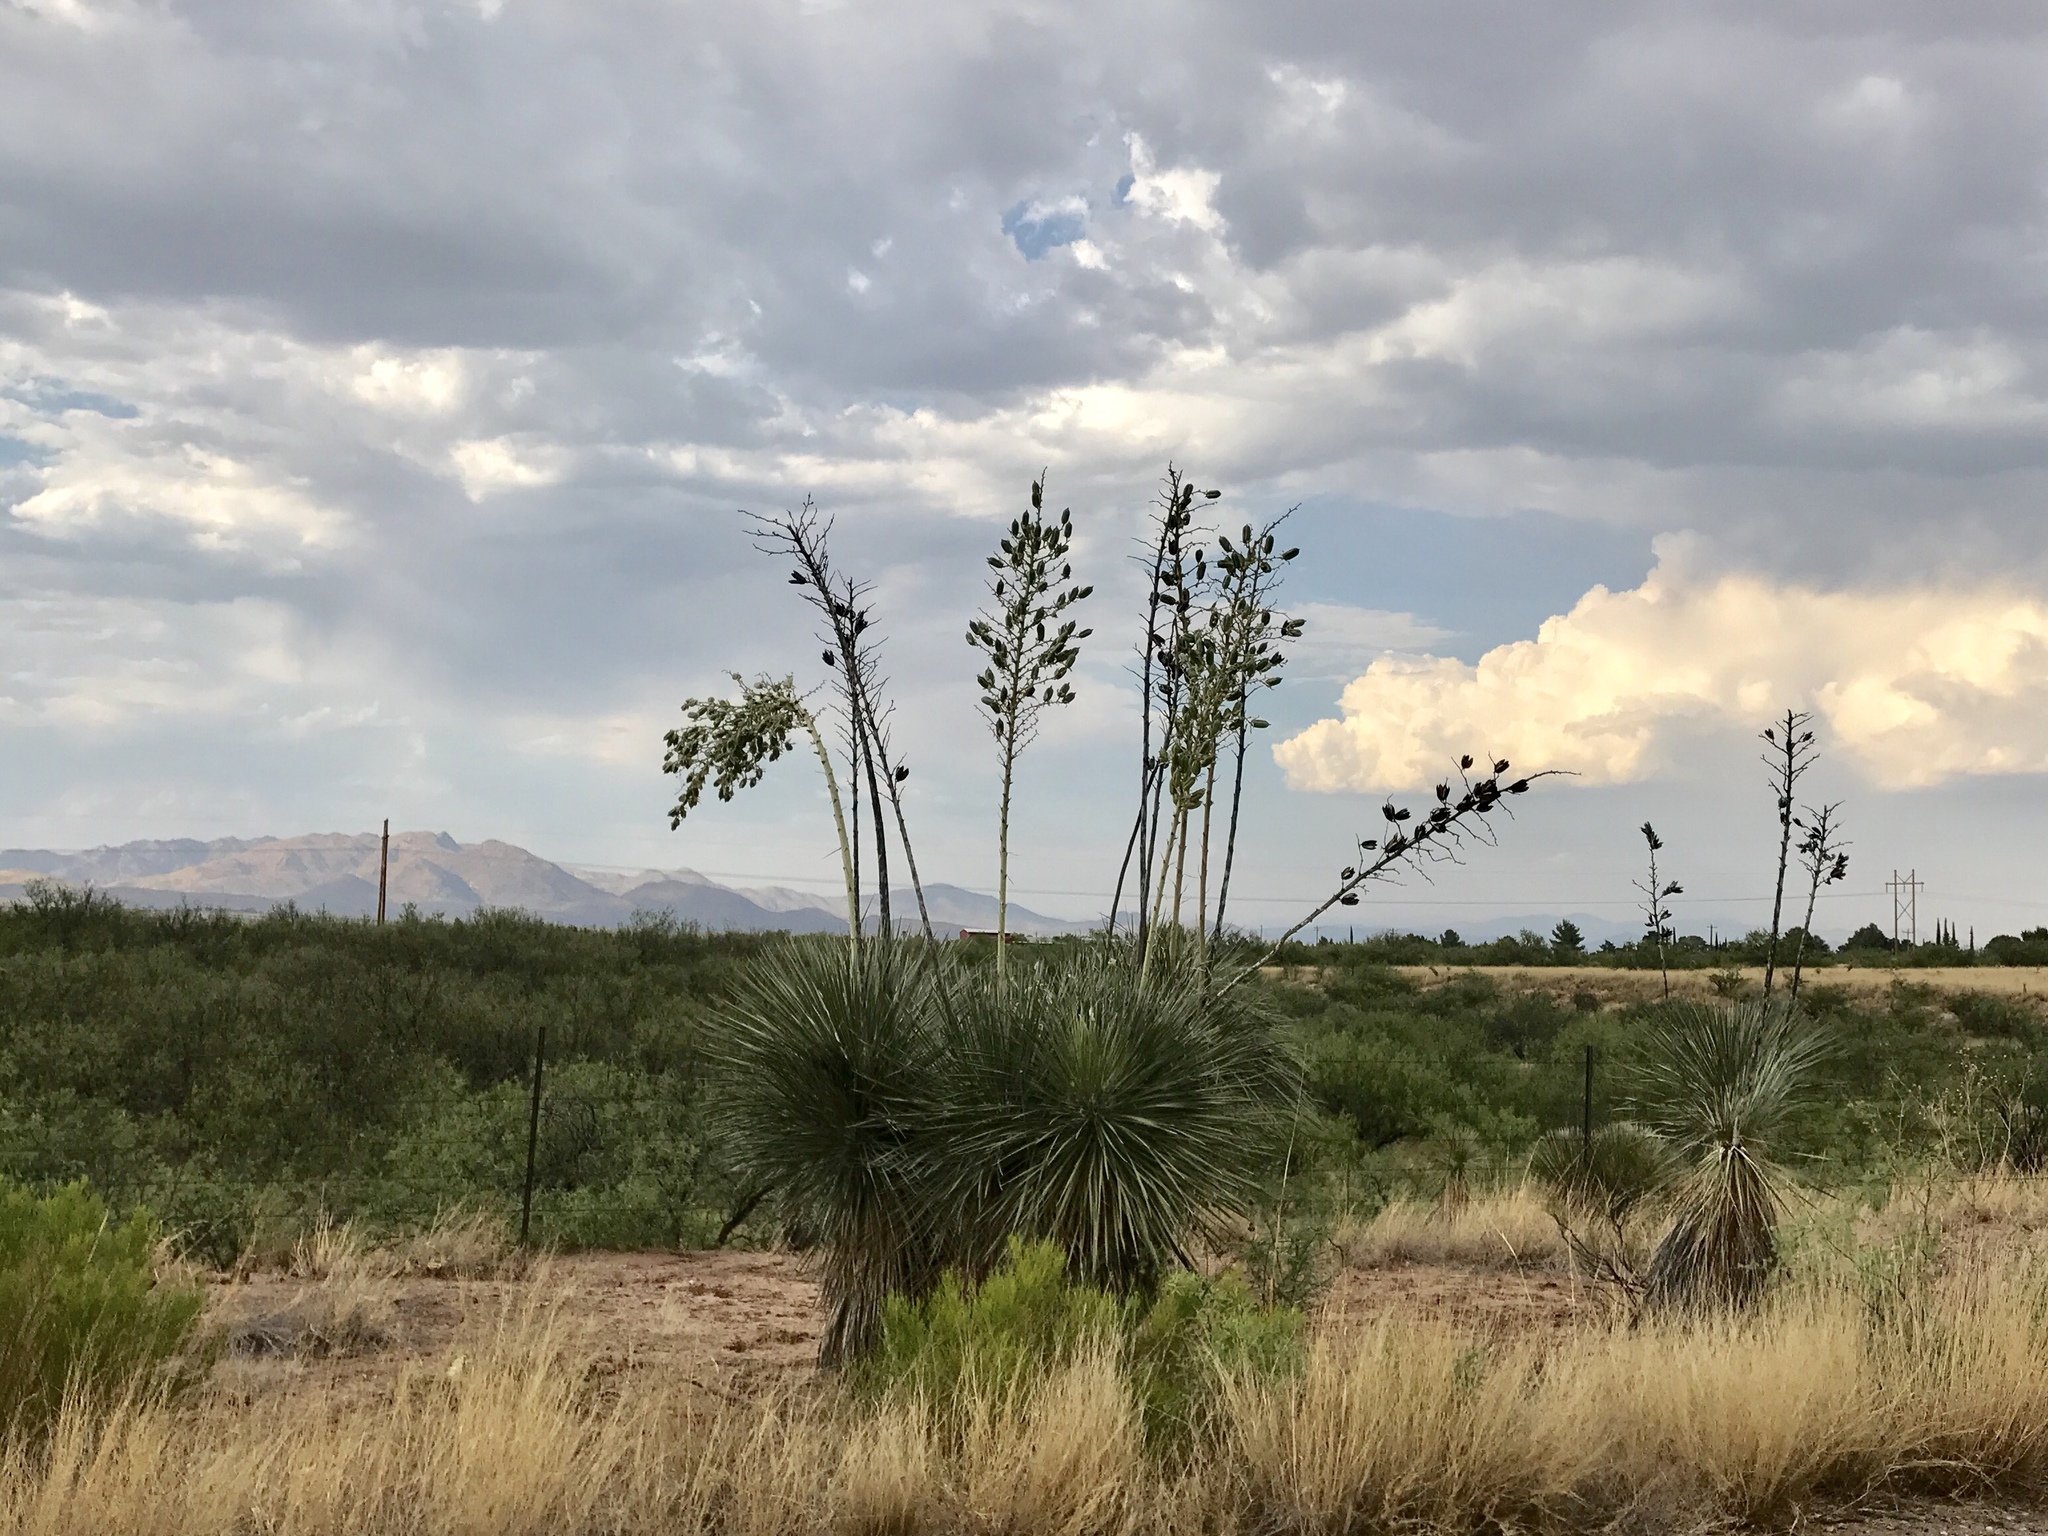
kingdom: Plantae
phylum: Tracheophyta
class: Liliopsida
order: Asparagales
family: Asparagaceae
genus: Yucca
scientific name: Yucca elata
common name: Palmella
